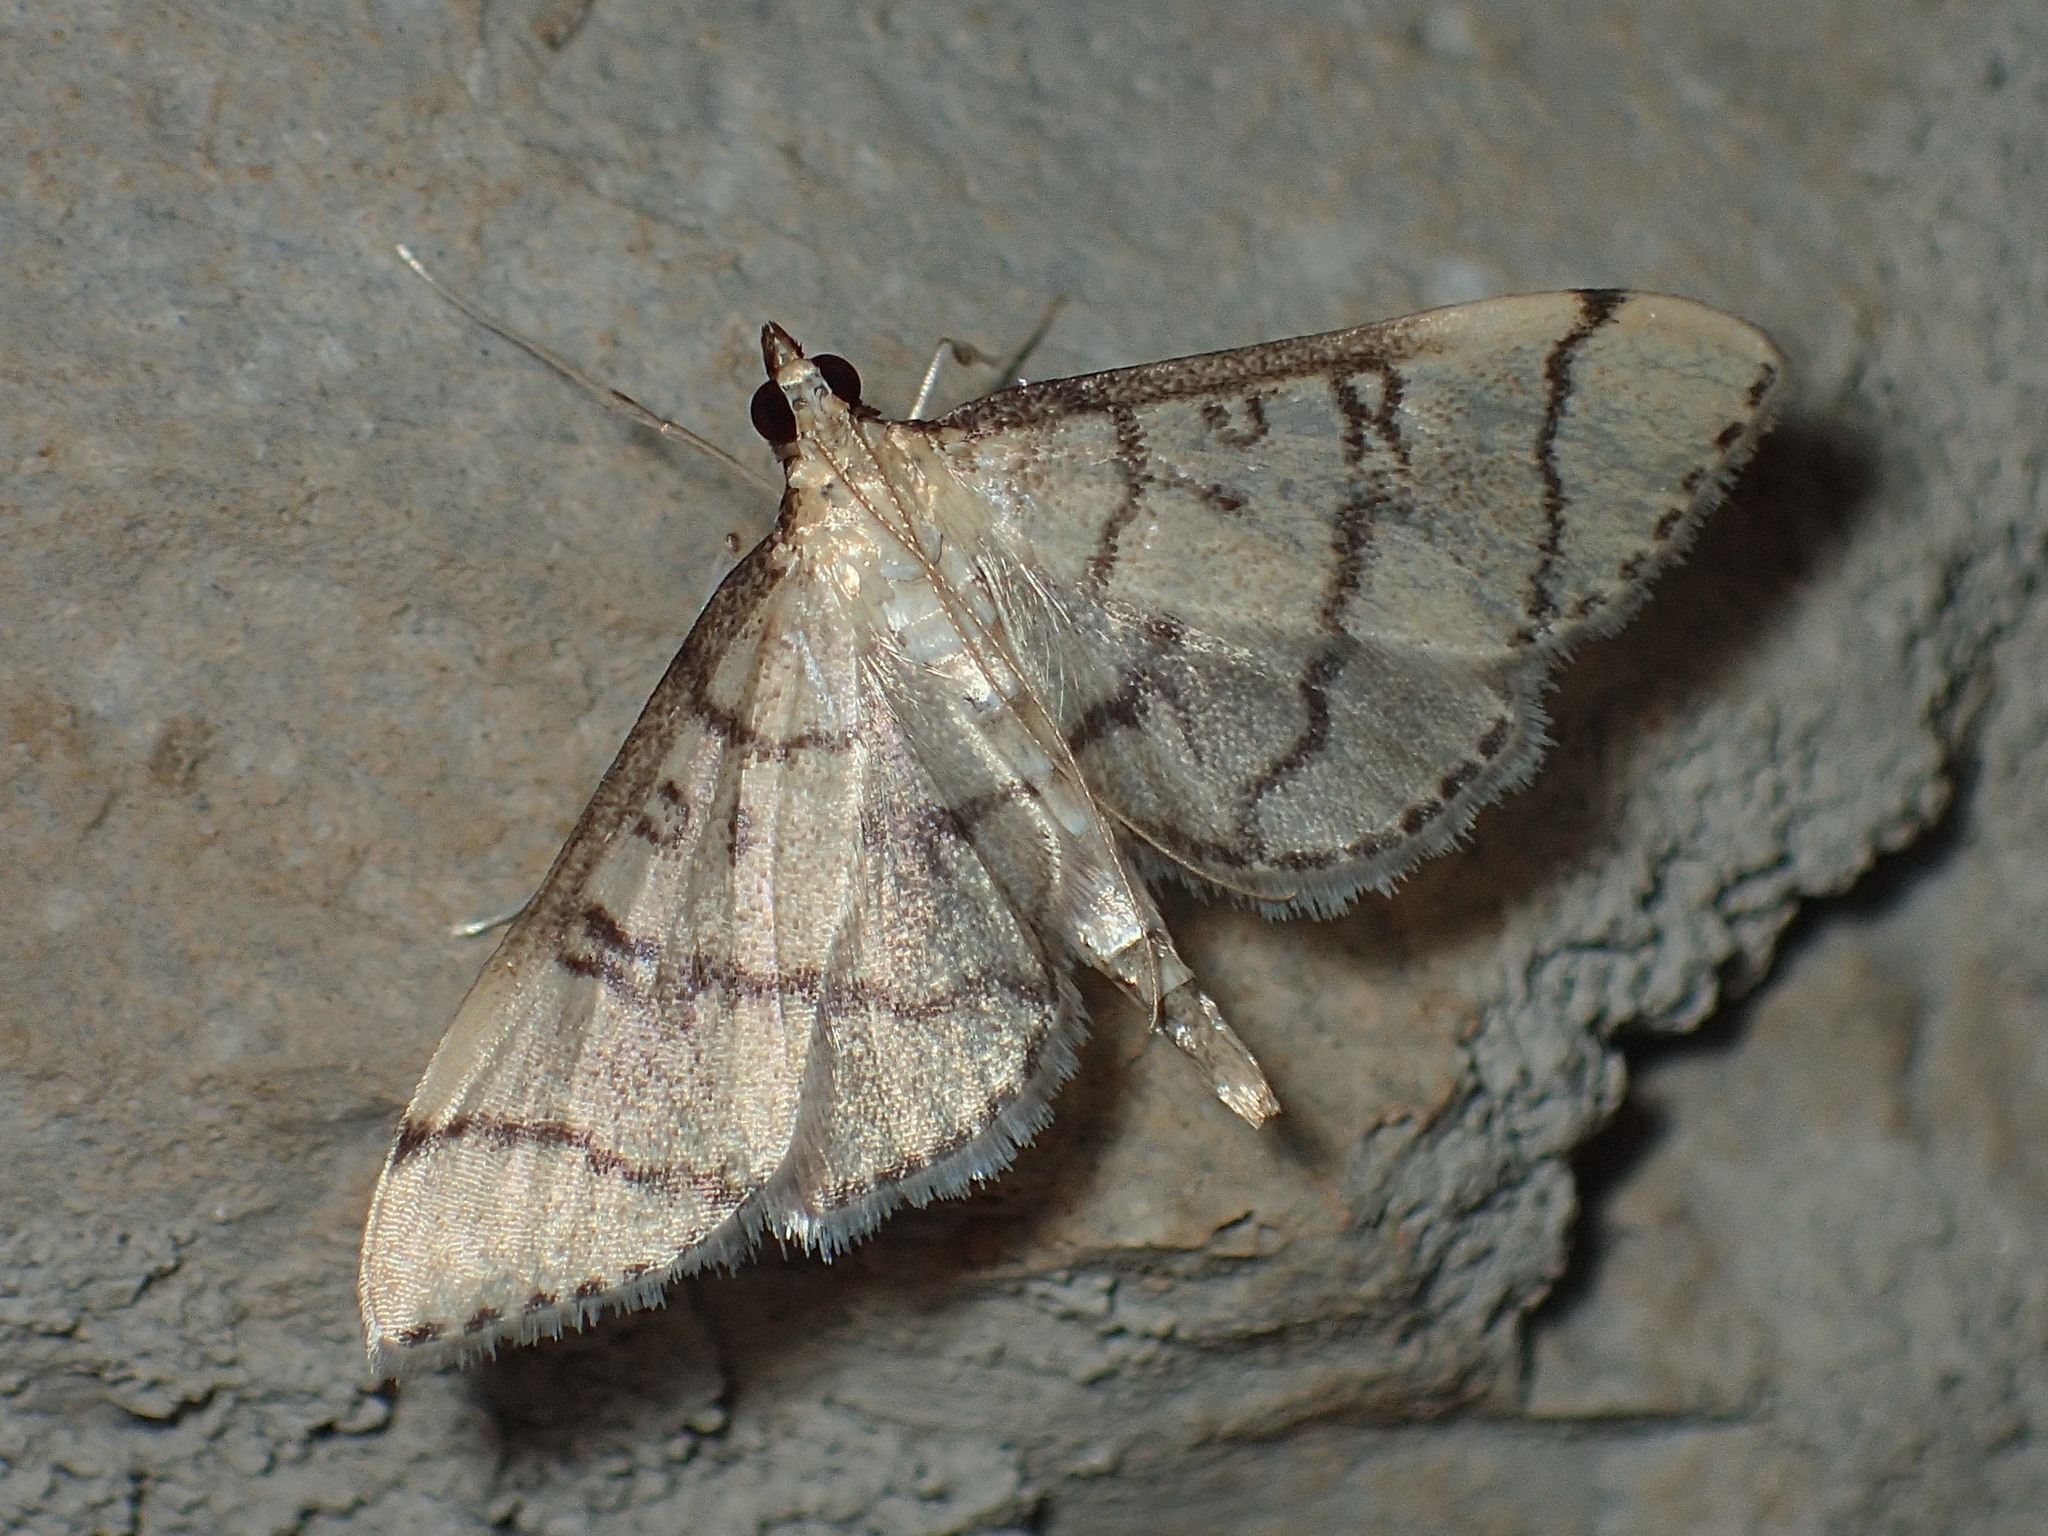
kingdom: Animalia
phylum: Arthropoda
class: Insecta
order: Lepidoptera
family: Crambidae
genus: Lamprosema
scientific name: Lamprosema Blepharomastix ranalis
